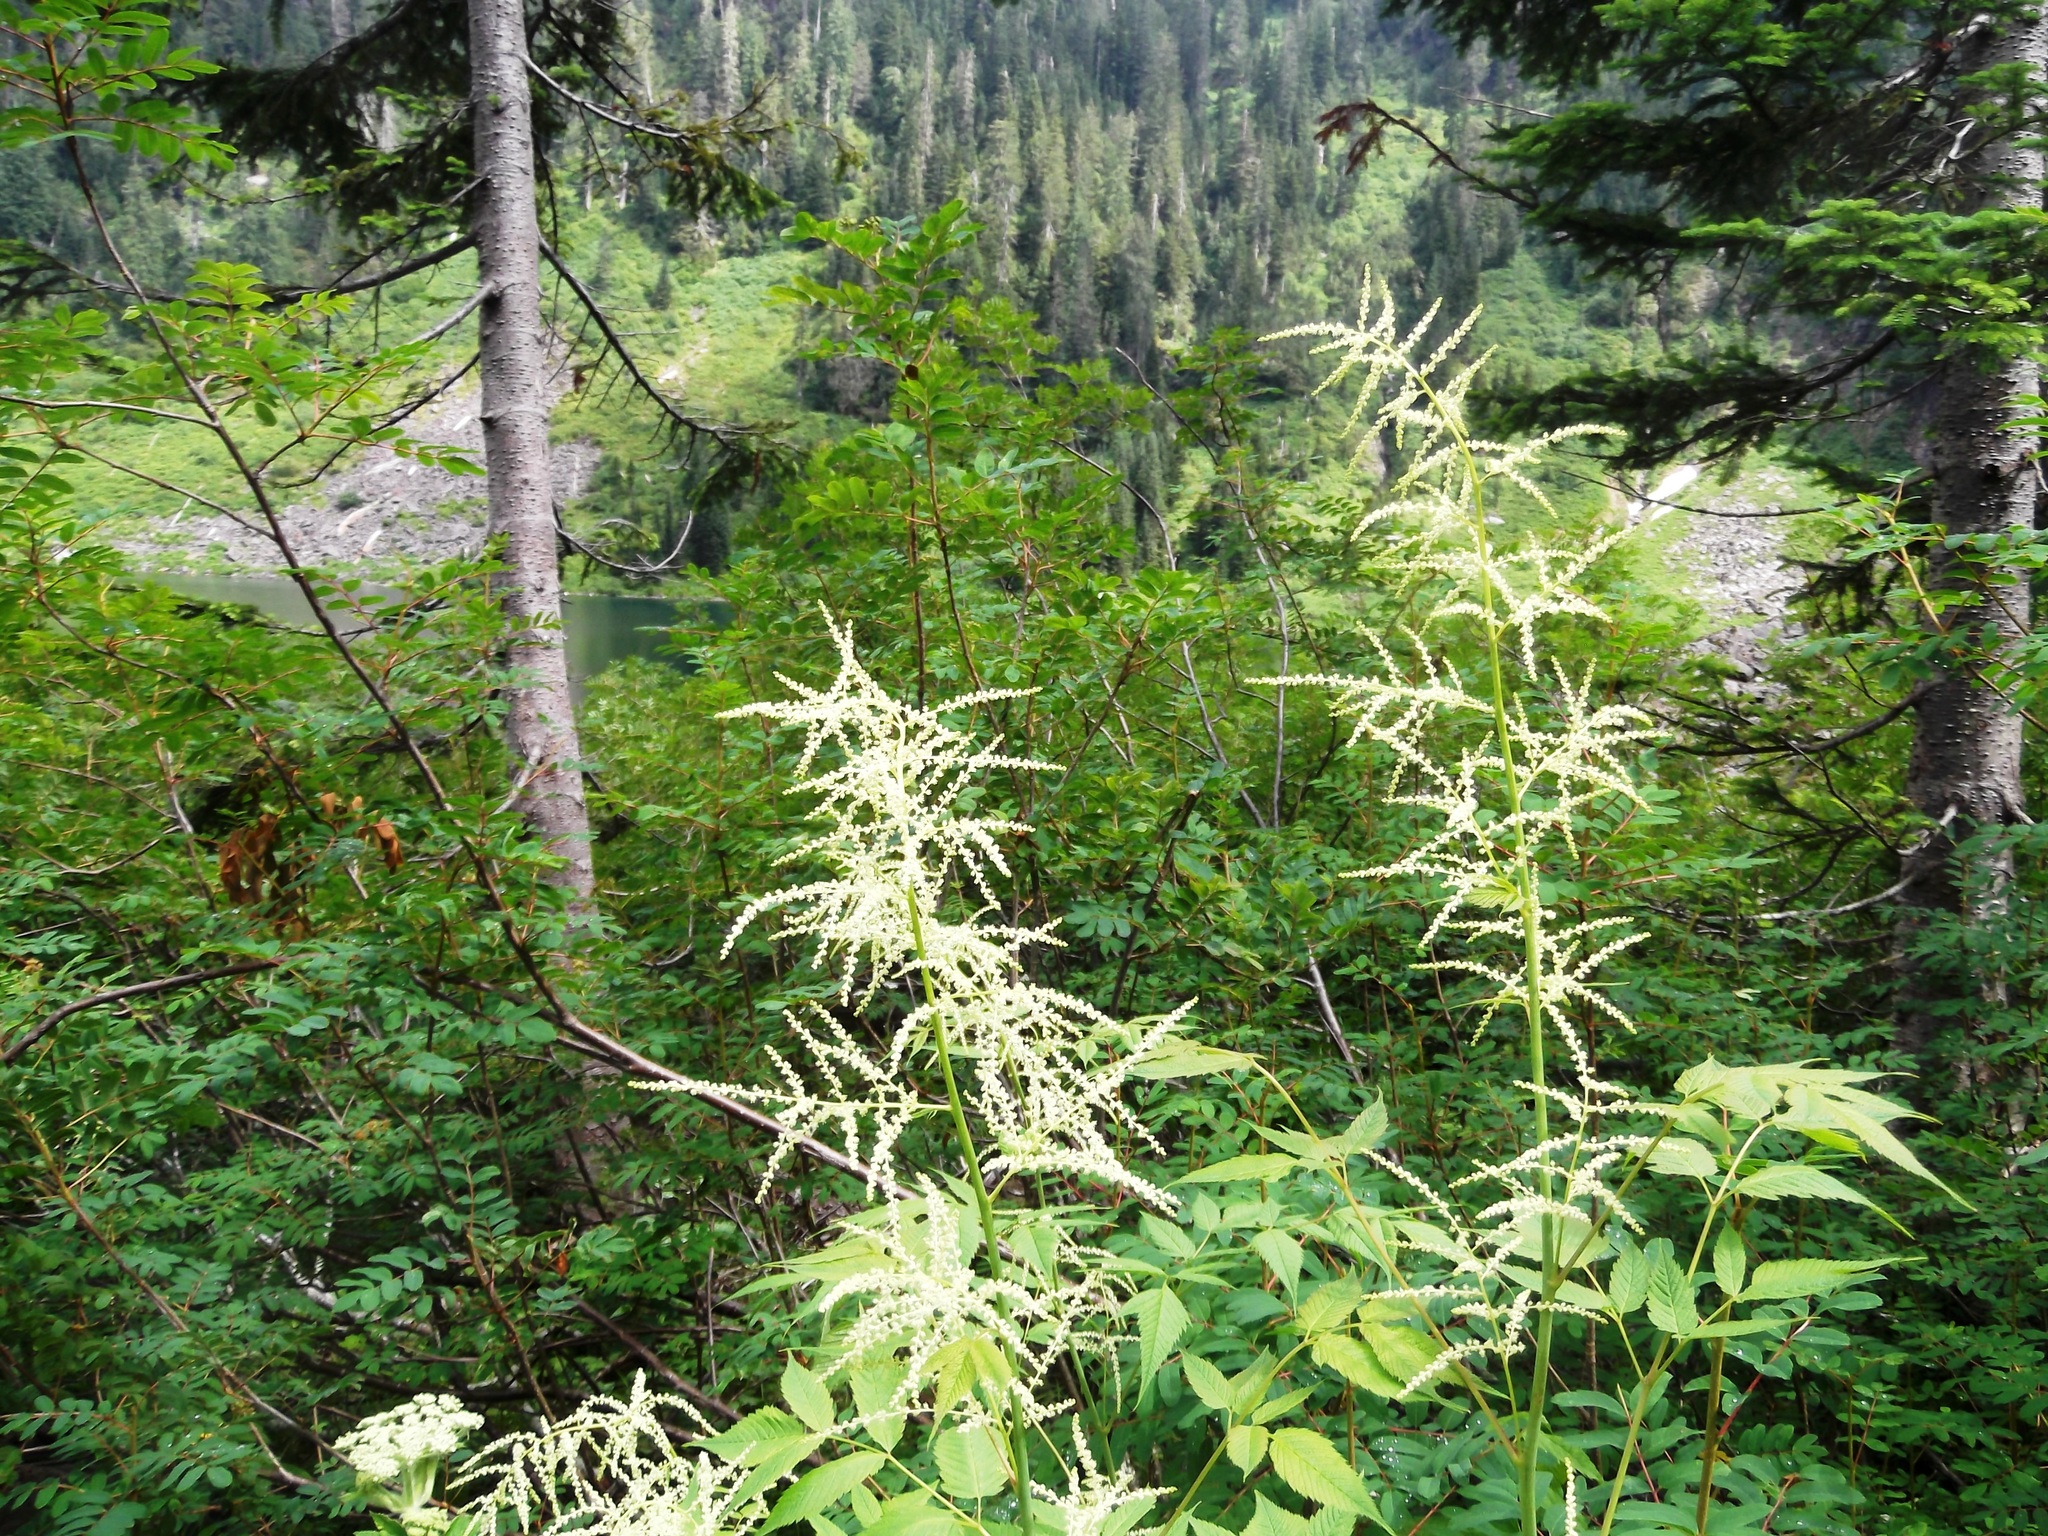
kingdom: Plantae
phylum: Tracheophyta
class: Magnoliopsida
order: Rosales
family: Rosaceae
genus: Aruncus
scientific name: Aruncus dioicus
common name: Buck's-beard
